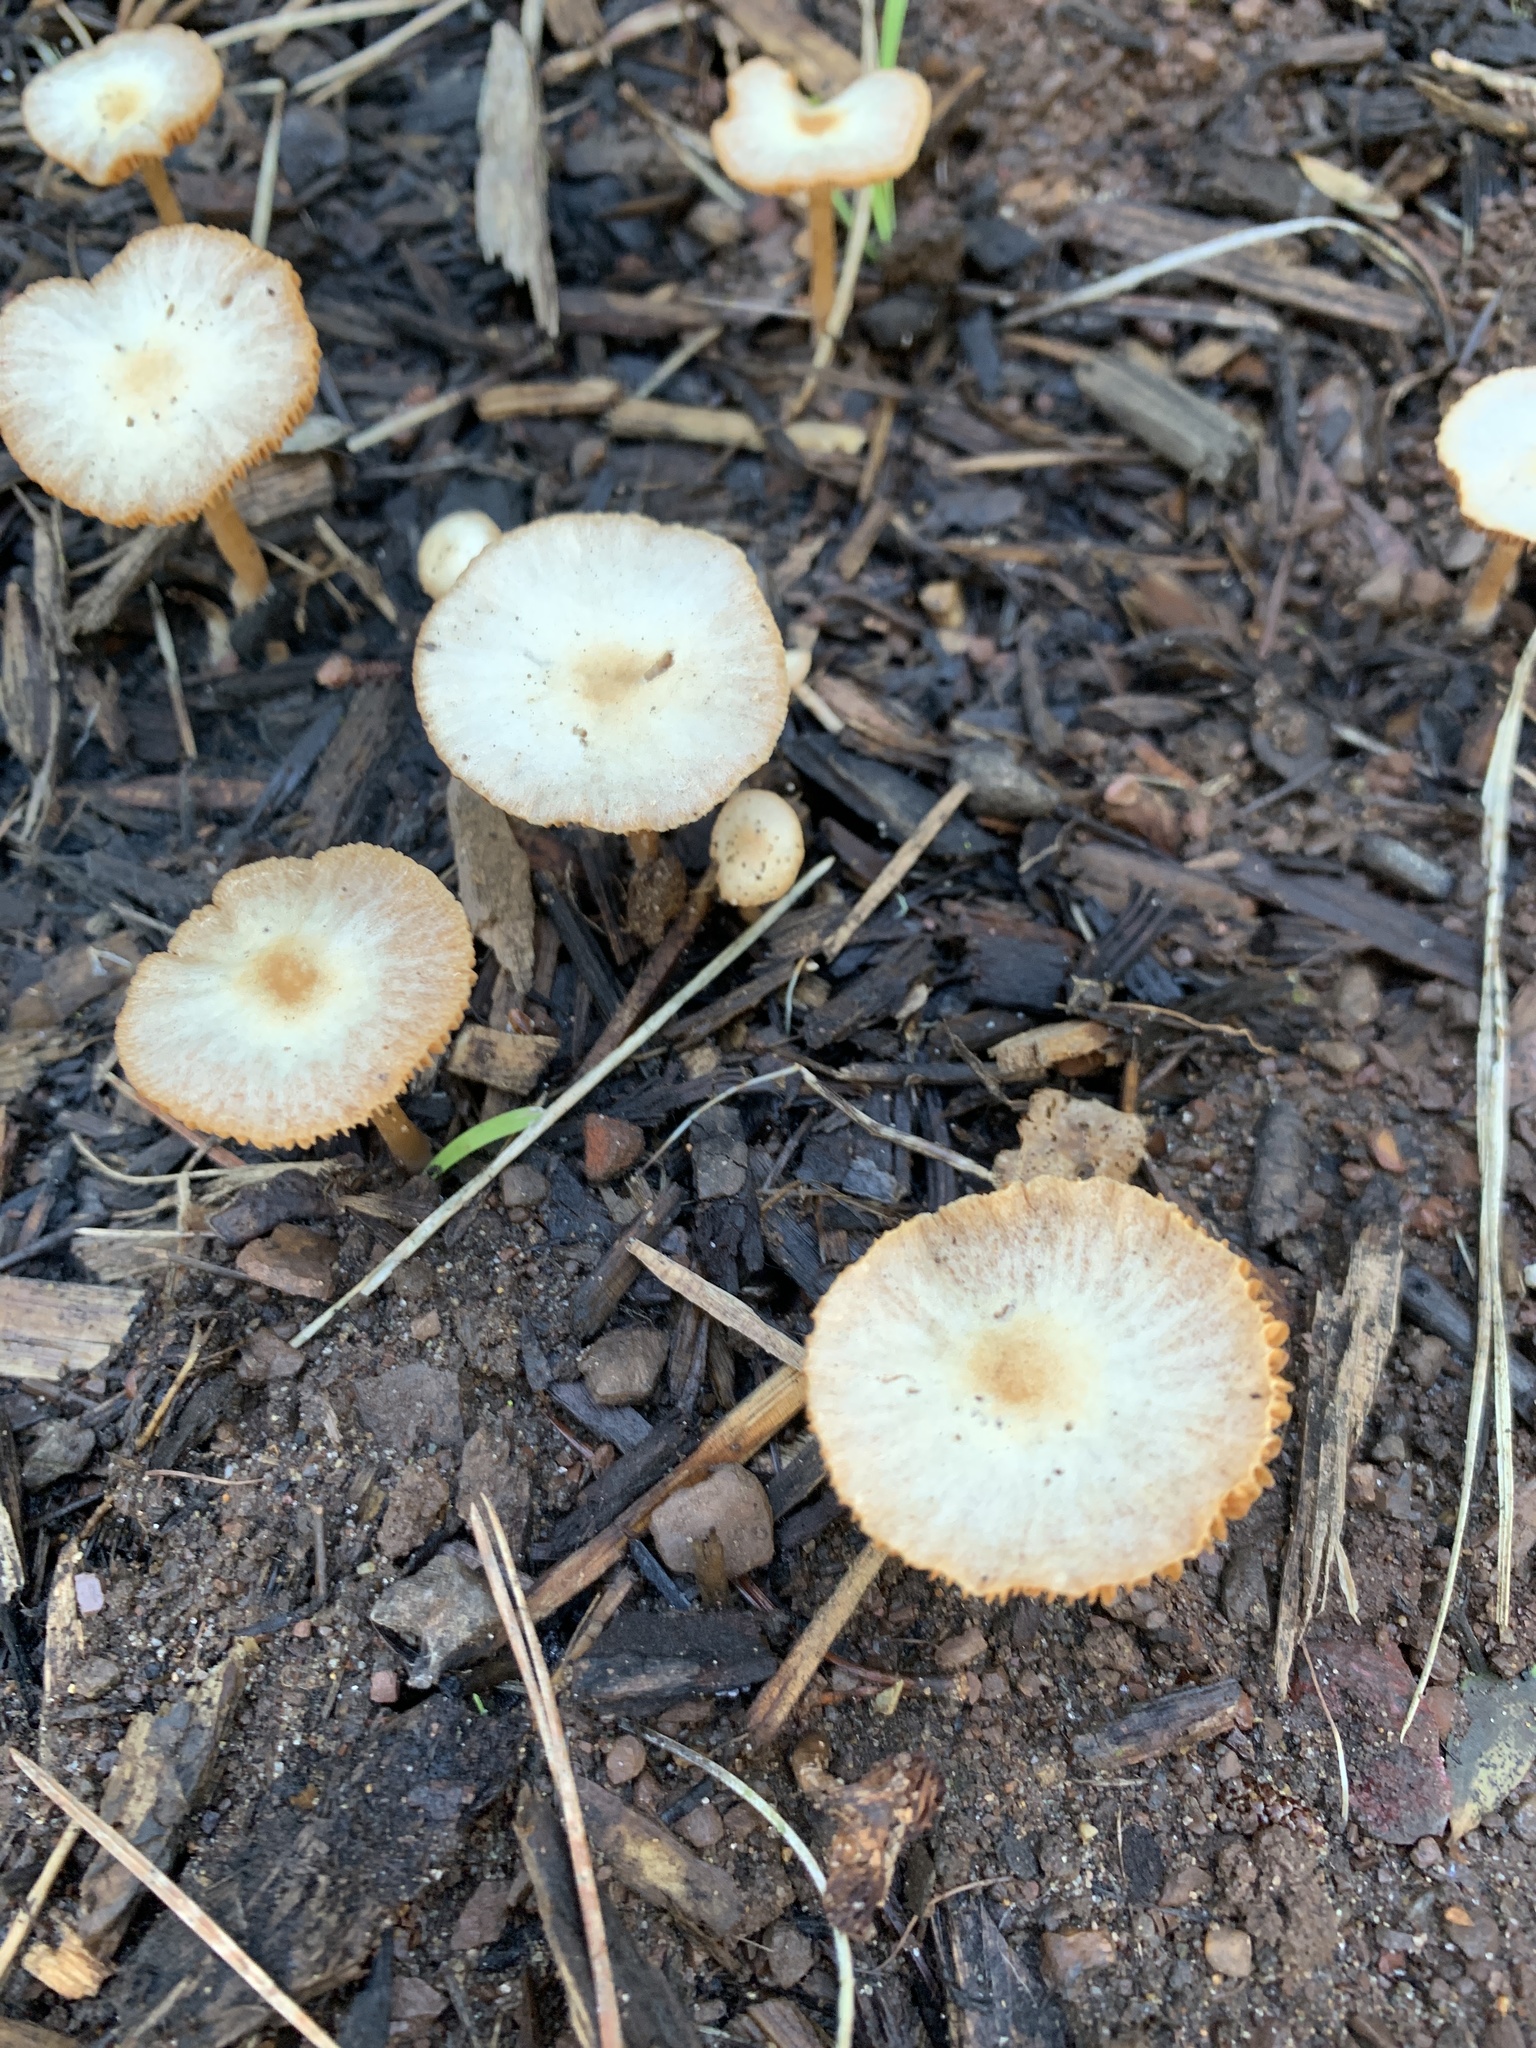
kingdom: Fungi
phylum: Basidiomycota
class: Agaricomycetes
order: Agaricales
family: Tubariaceae
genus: Tubaria
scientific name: Tubaria furfuracea
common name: Scurfy twiglet
